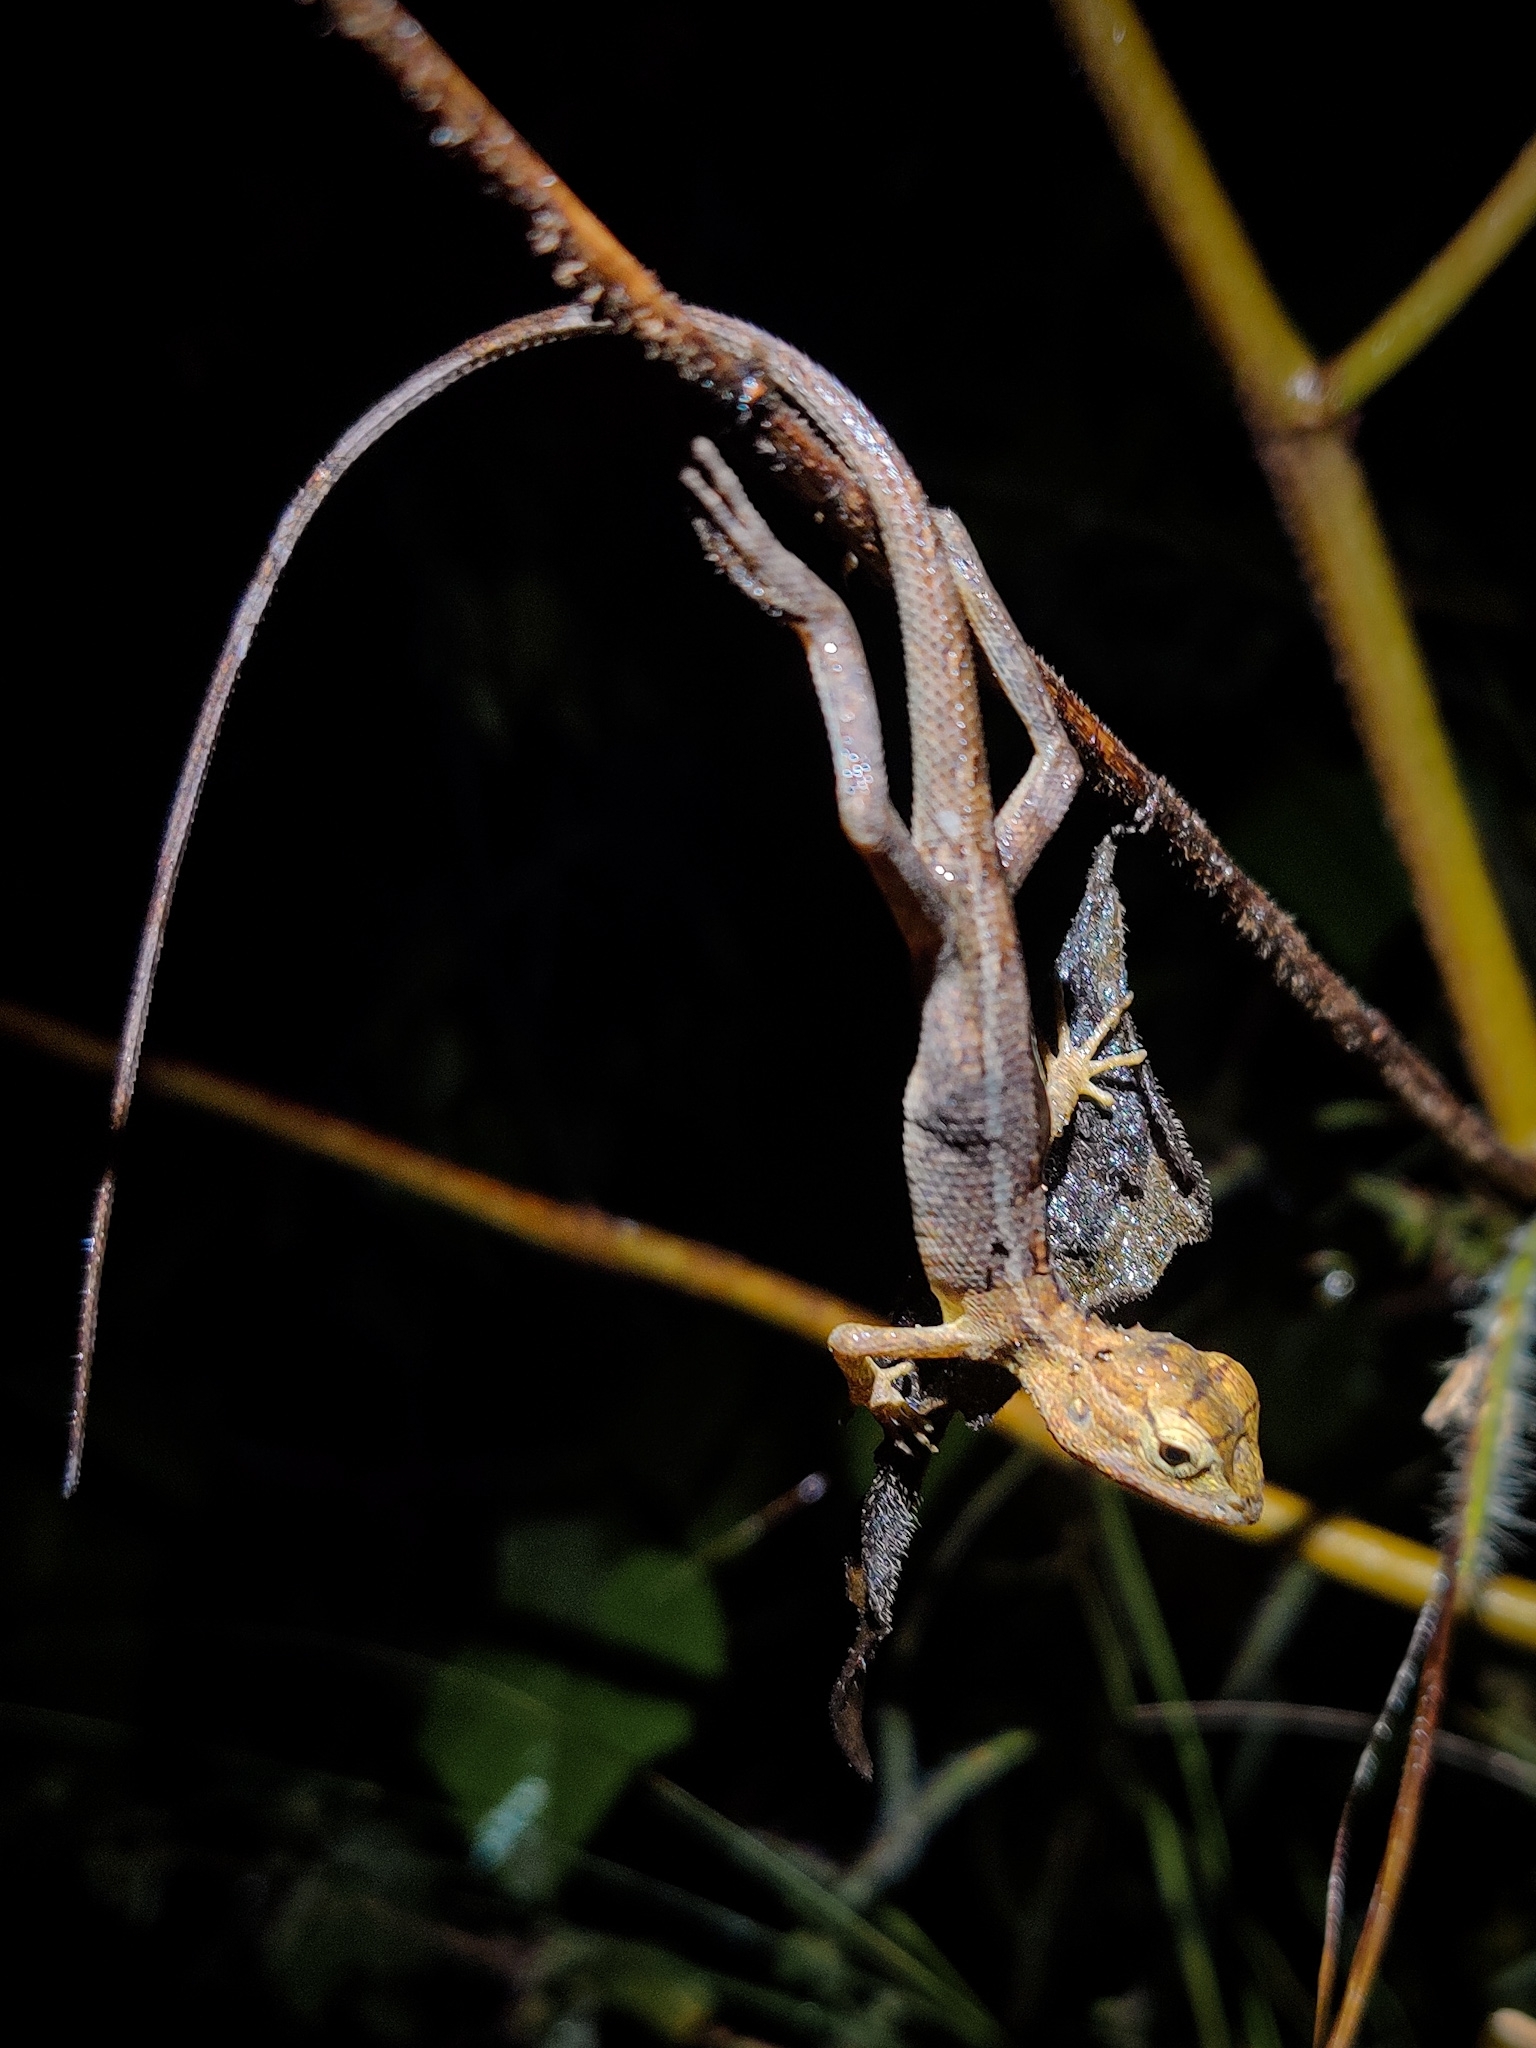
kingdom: Animalia
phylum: Chordata
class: Squamata
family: Agamidae
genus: Calotes
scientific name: Calotes versicolor
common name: Oriental garden lizard
